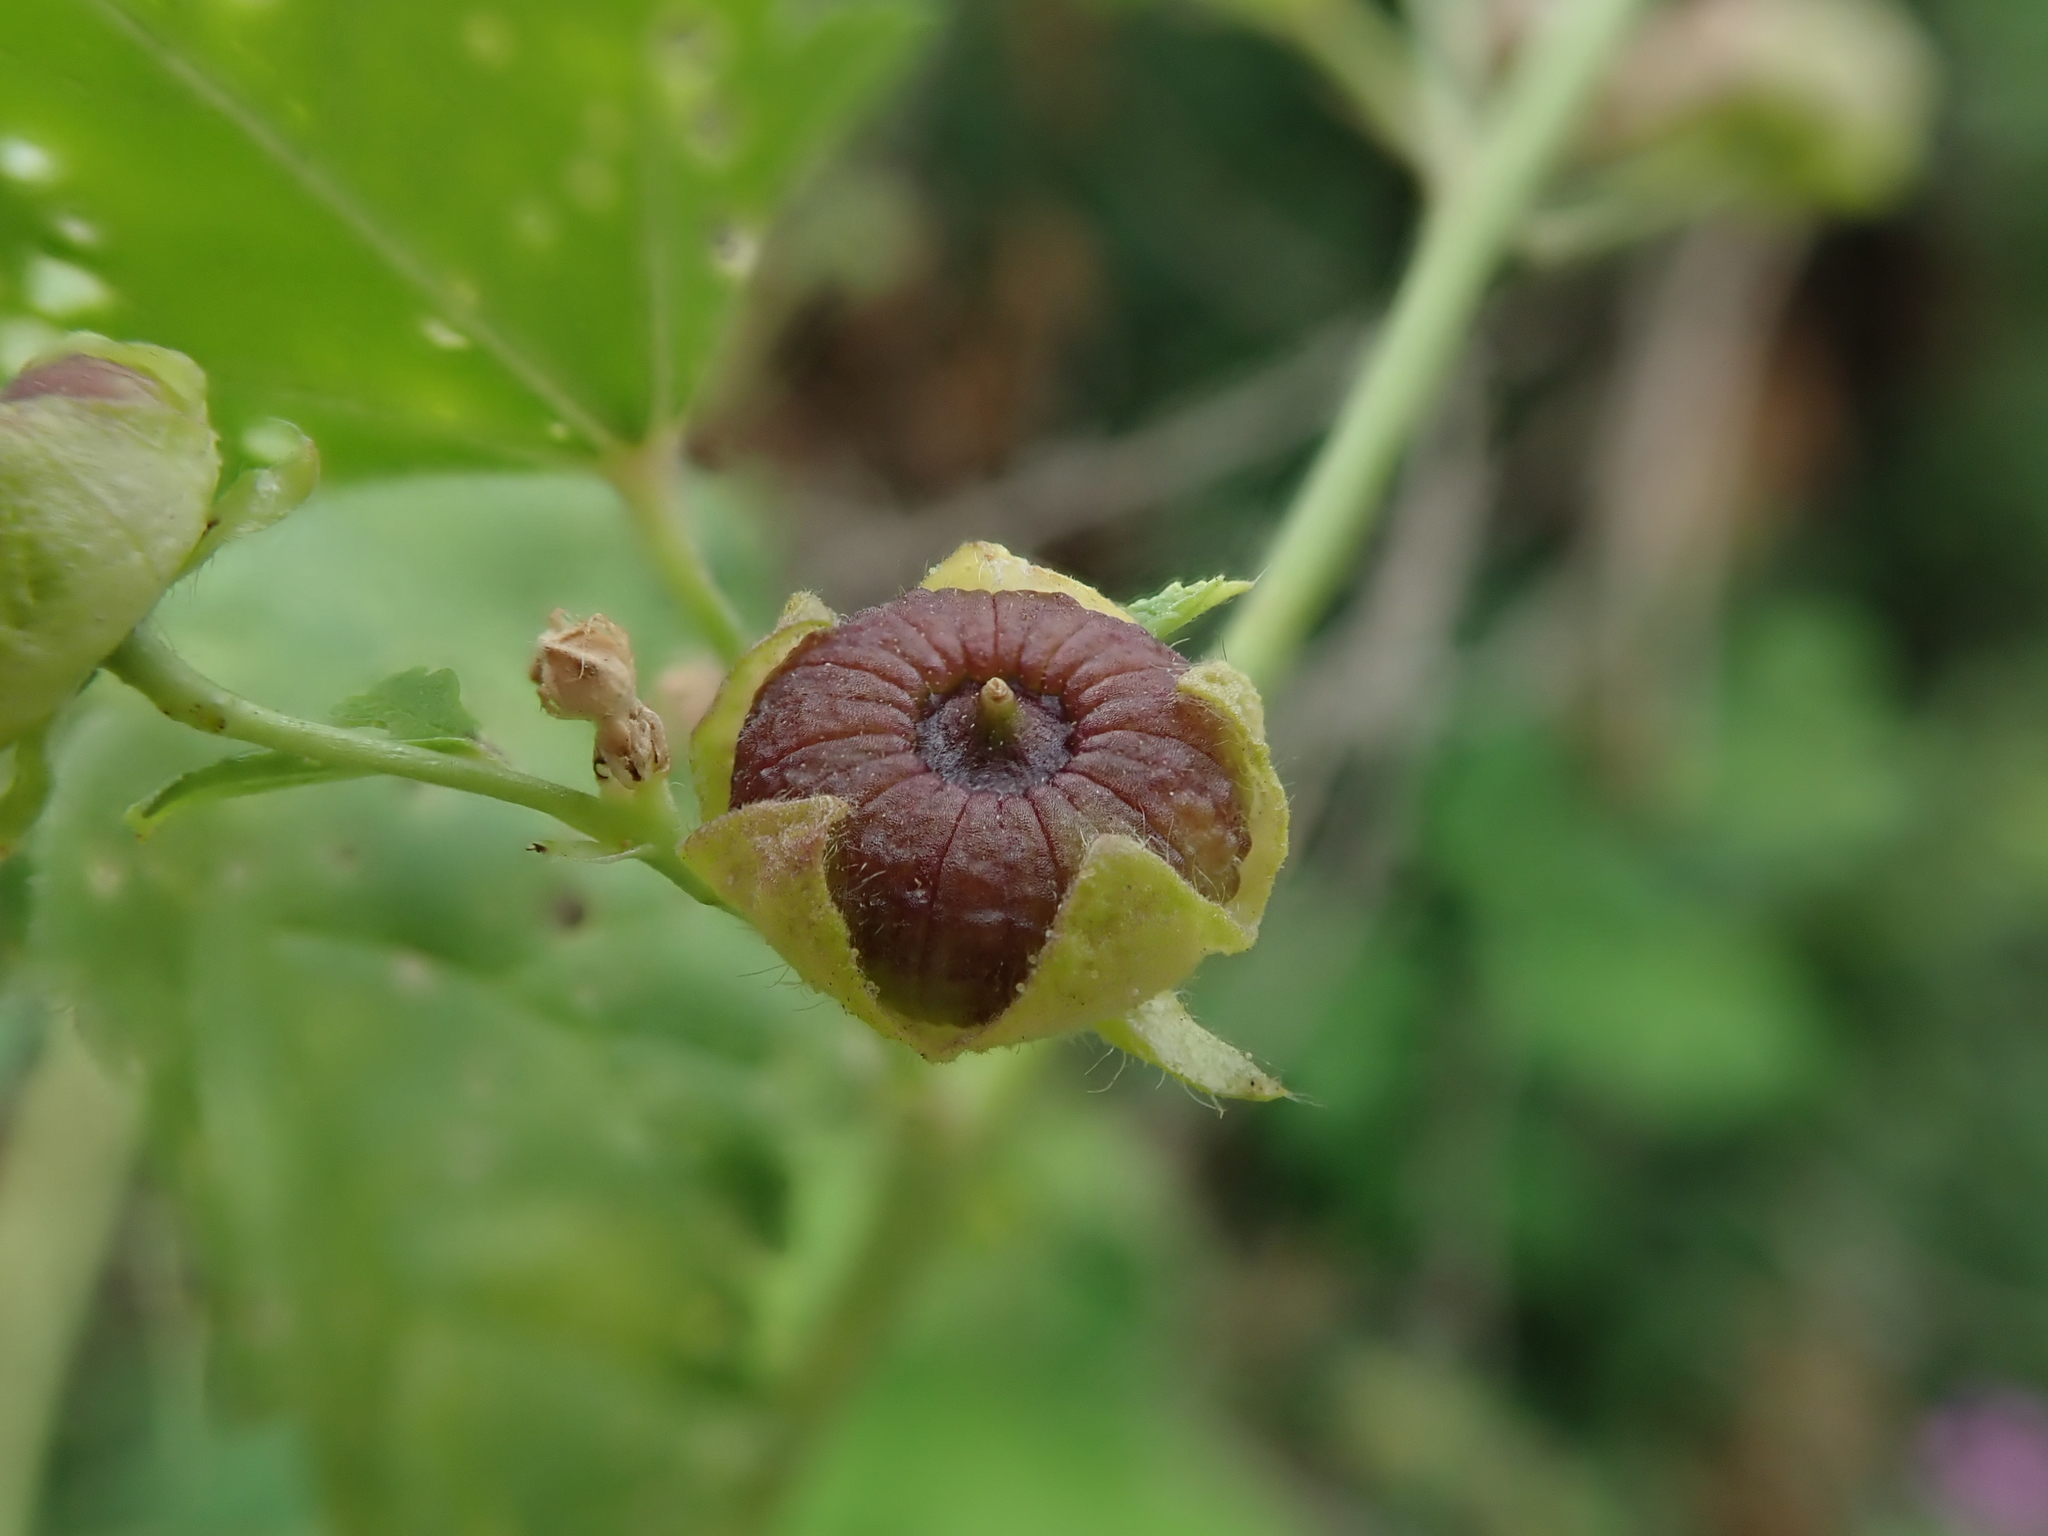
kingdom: Plantae
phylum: Tracheophyta
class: Magnoliopsida
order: Malvales
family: Malvaceae
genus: Malva
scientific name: Malva sylvestris
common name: Common mallow
